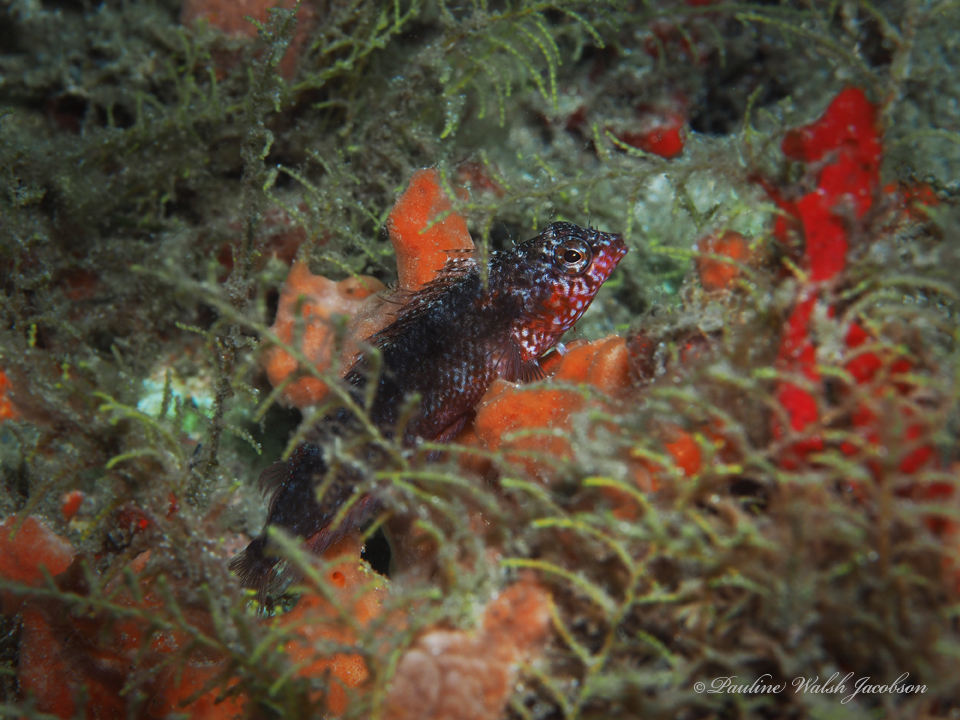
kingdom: Animalia
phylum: Chordata
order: Perciformes
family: Labrisomidae
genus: Malacoctenus
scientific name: Malacoctenus macropus
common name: Rosy blenny
